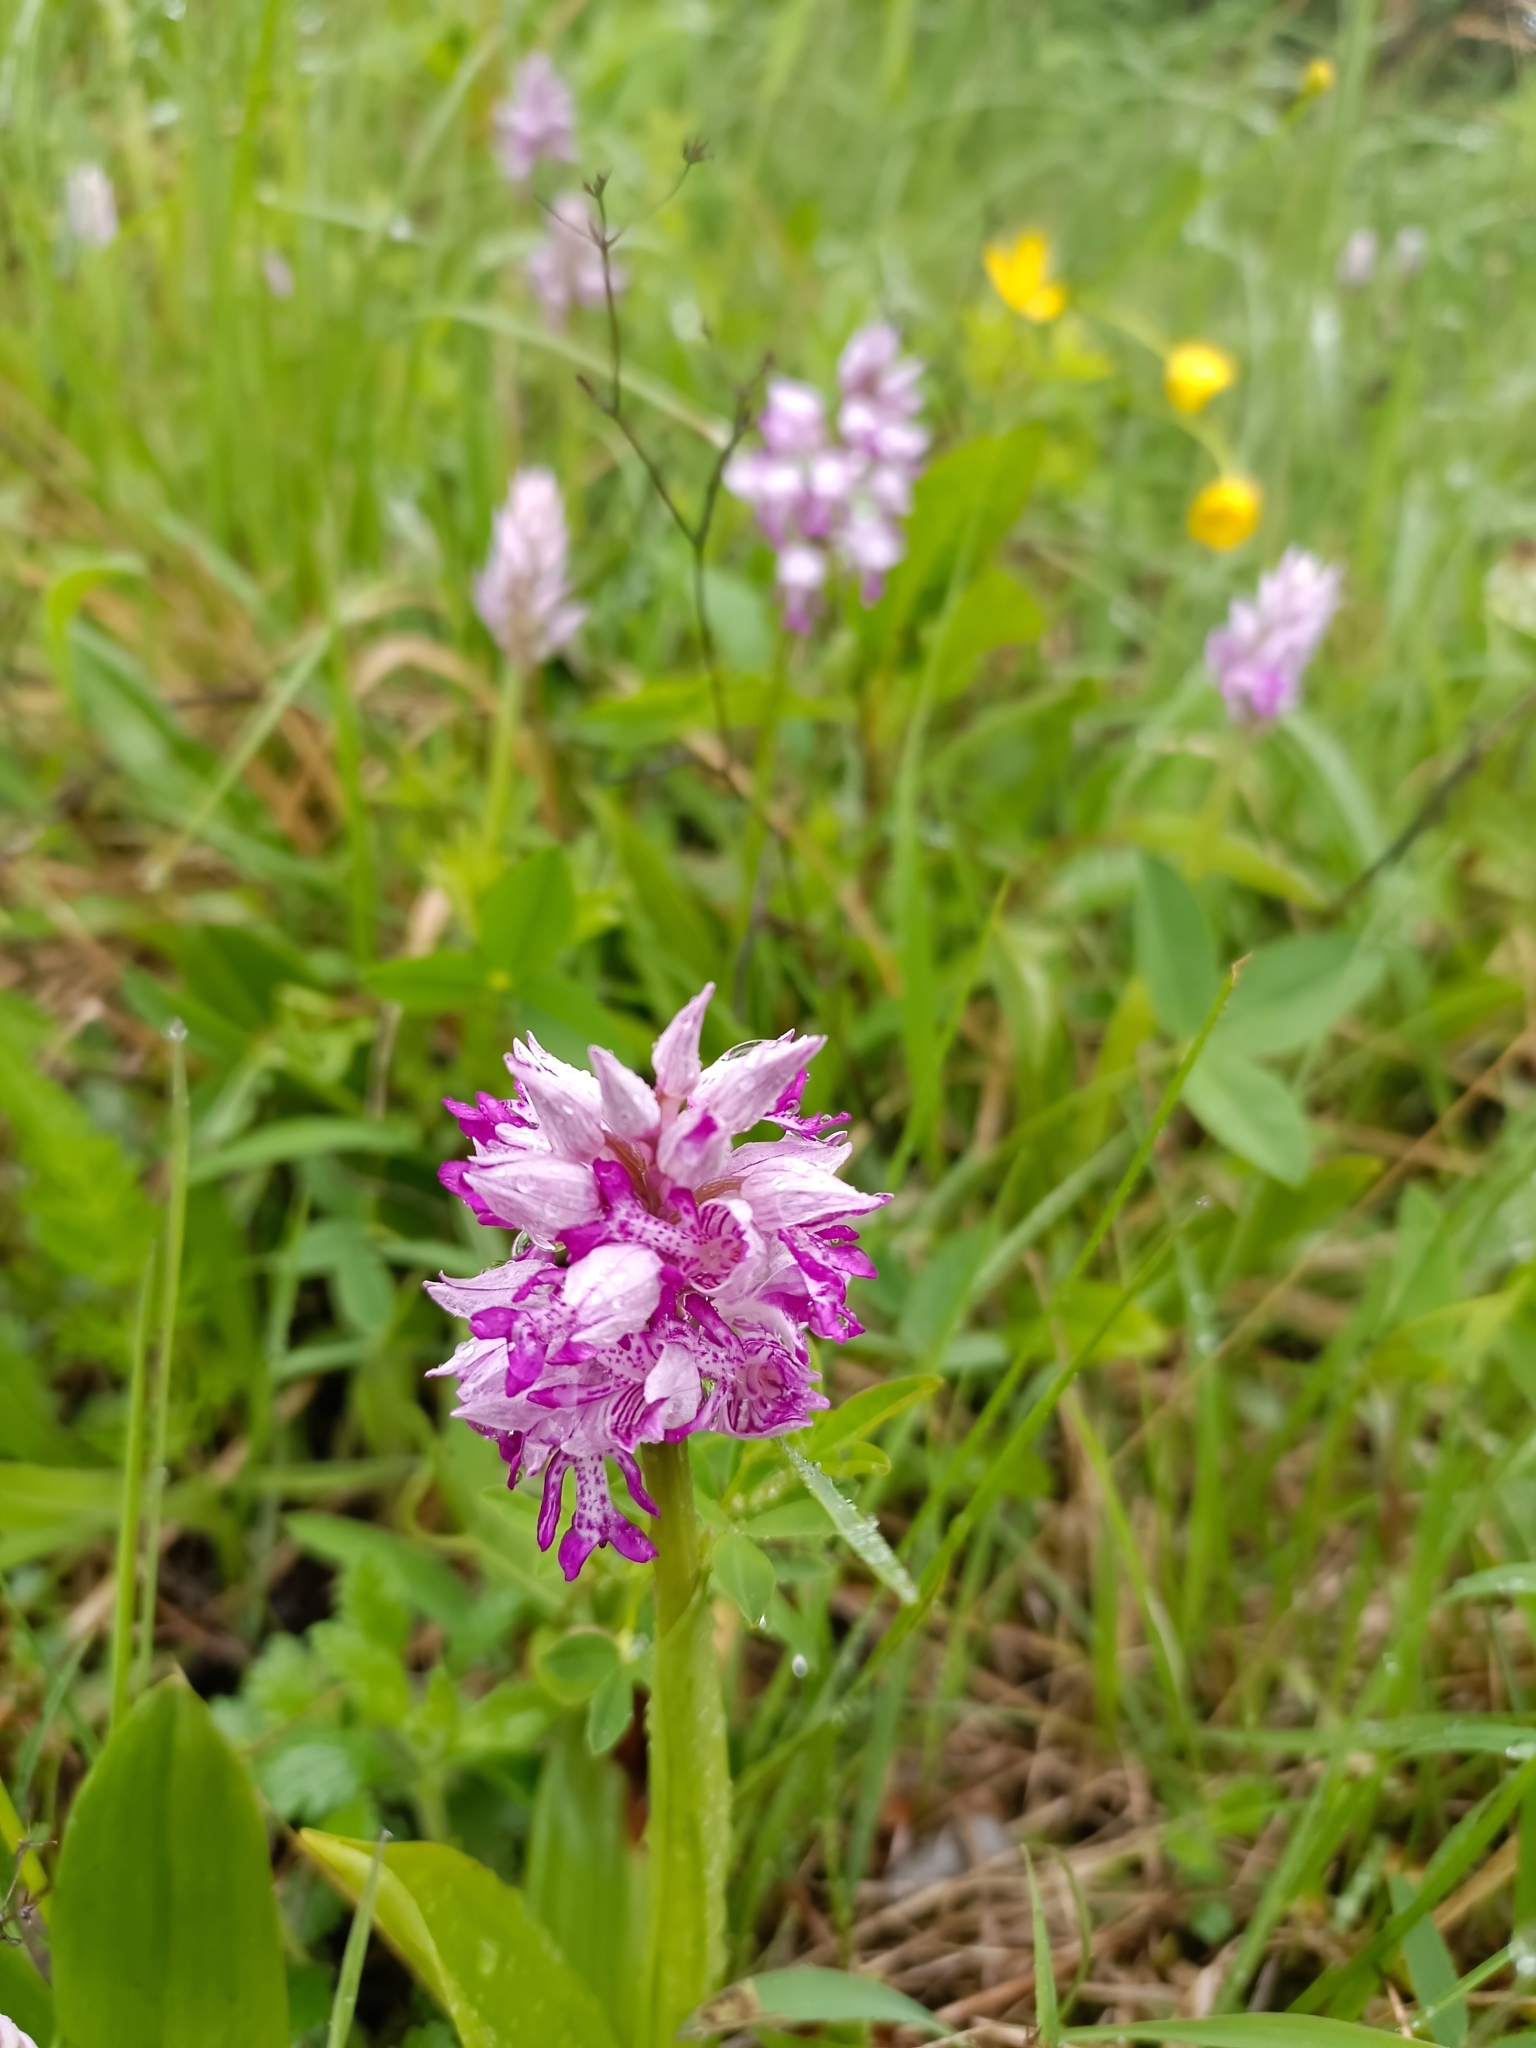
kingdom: Plantae
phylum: Tracheophyta
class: Liliopsida
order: Asparagales
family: Orchidaceae
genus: Orchis
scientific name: Orchis militaris
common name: Military orchid
